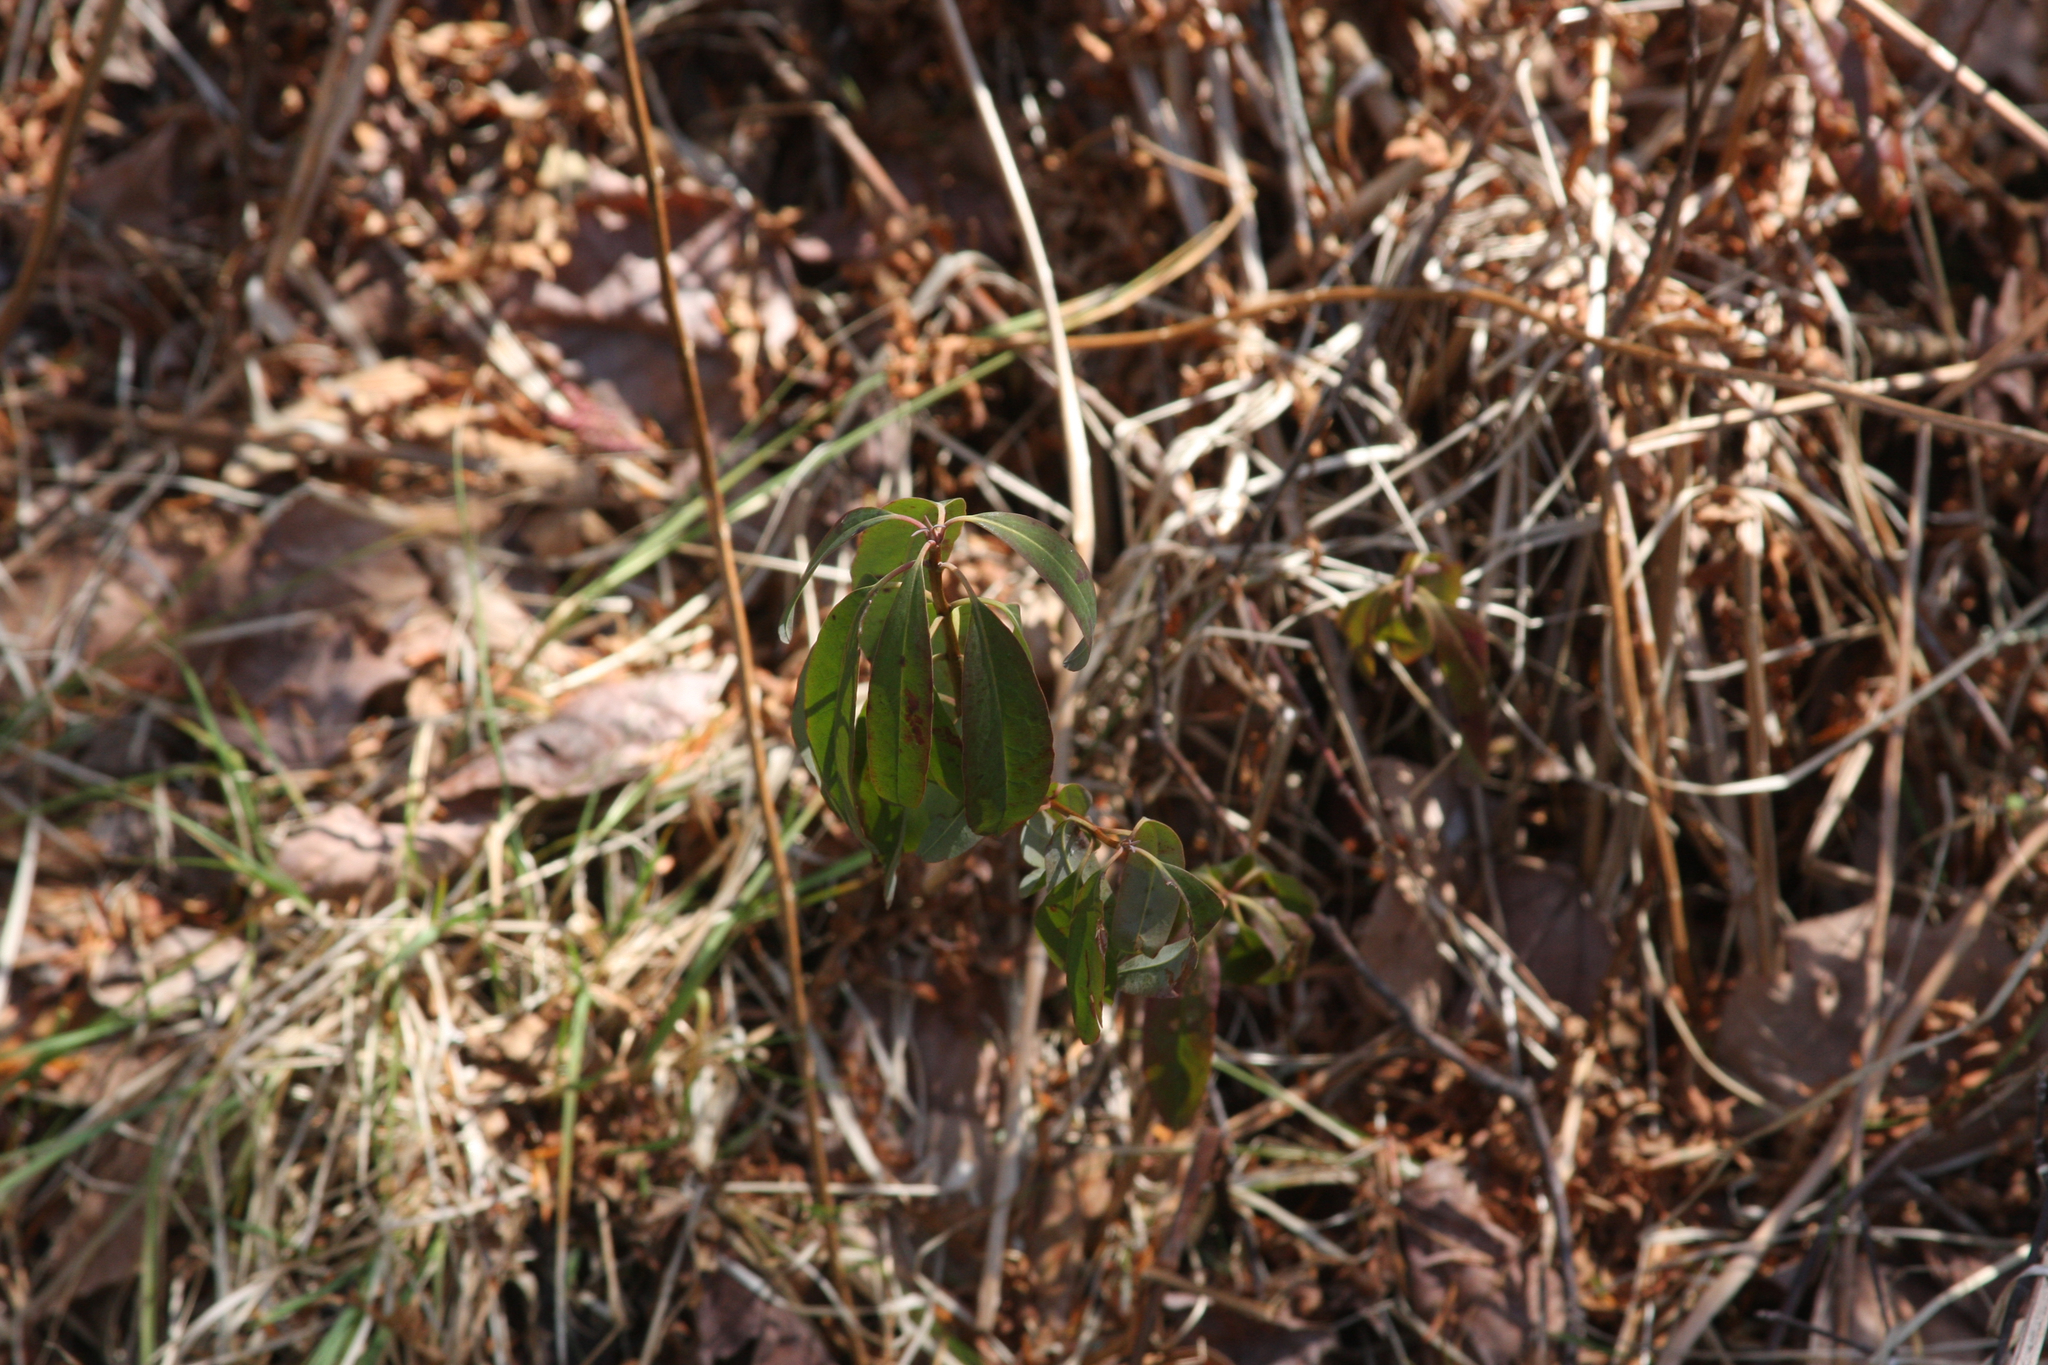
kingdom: Plantae
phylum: Tracheophyta
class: Magnoliopsida
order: Ericales
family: Ericaceae
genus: Kalmia
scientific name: Kalmia angustifolia
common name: Sheep-laurel
